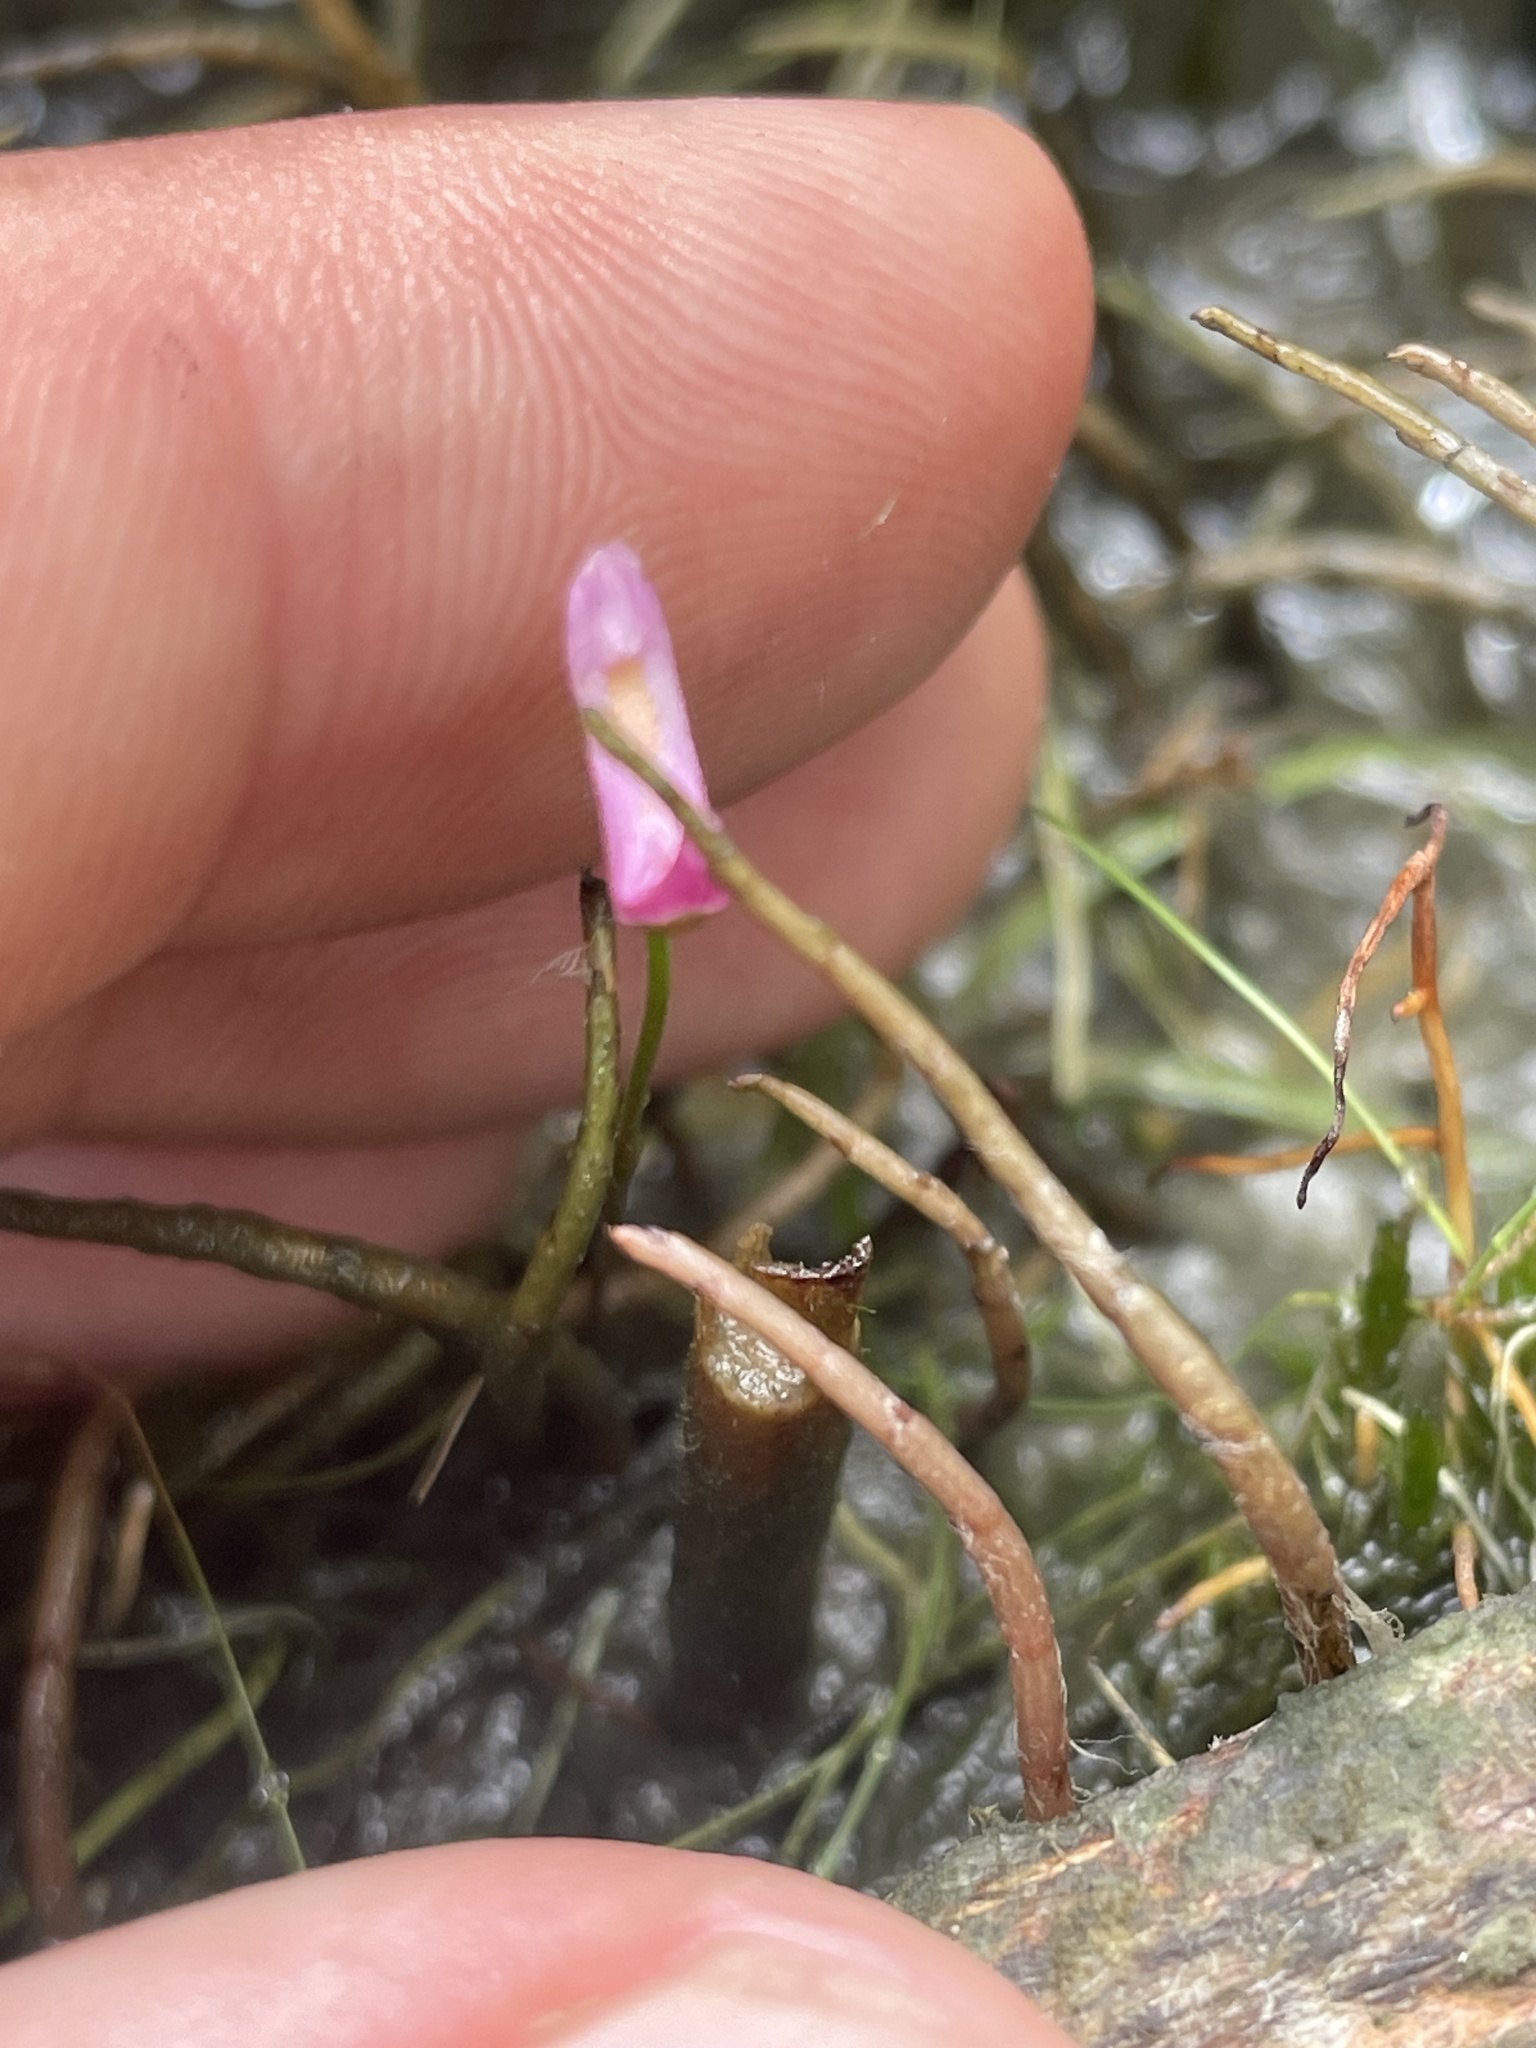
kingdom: Plantae
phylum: Tracheophyta
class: Magnoliopsida
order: Lamiales
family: Lentibulariaceae
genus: Utricularia
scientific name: Utricularia resupinata
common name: Northeastern bladderwort
